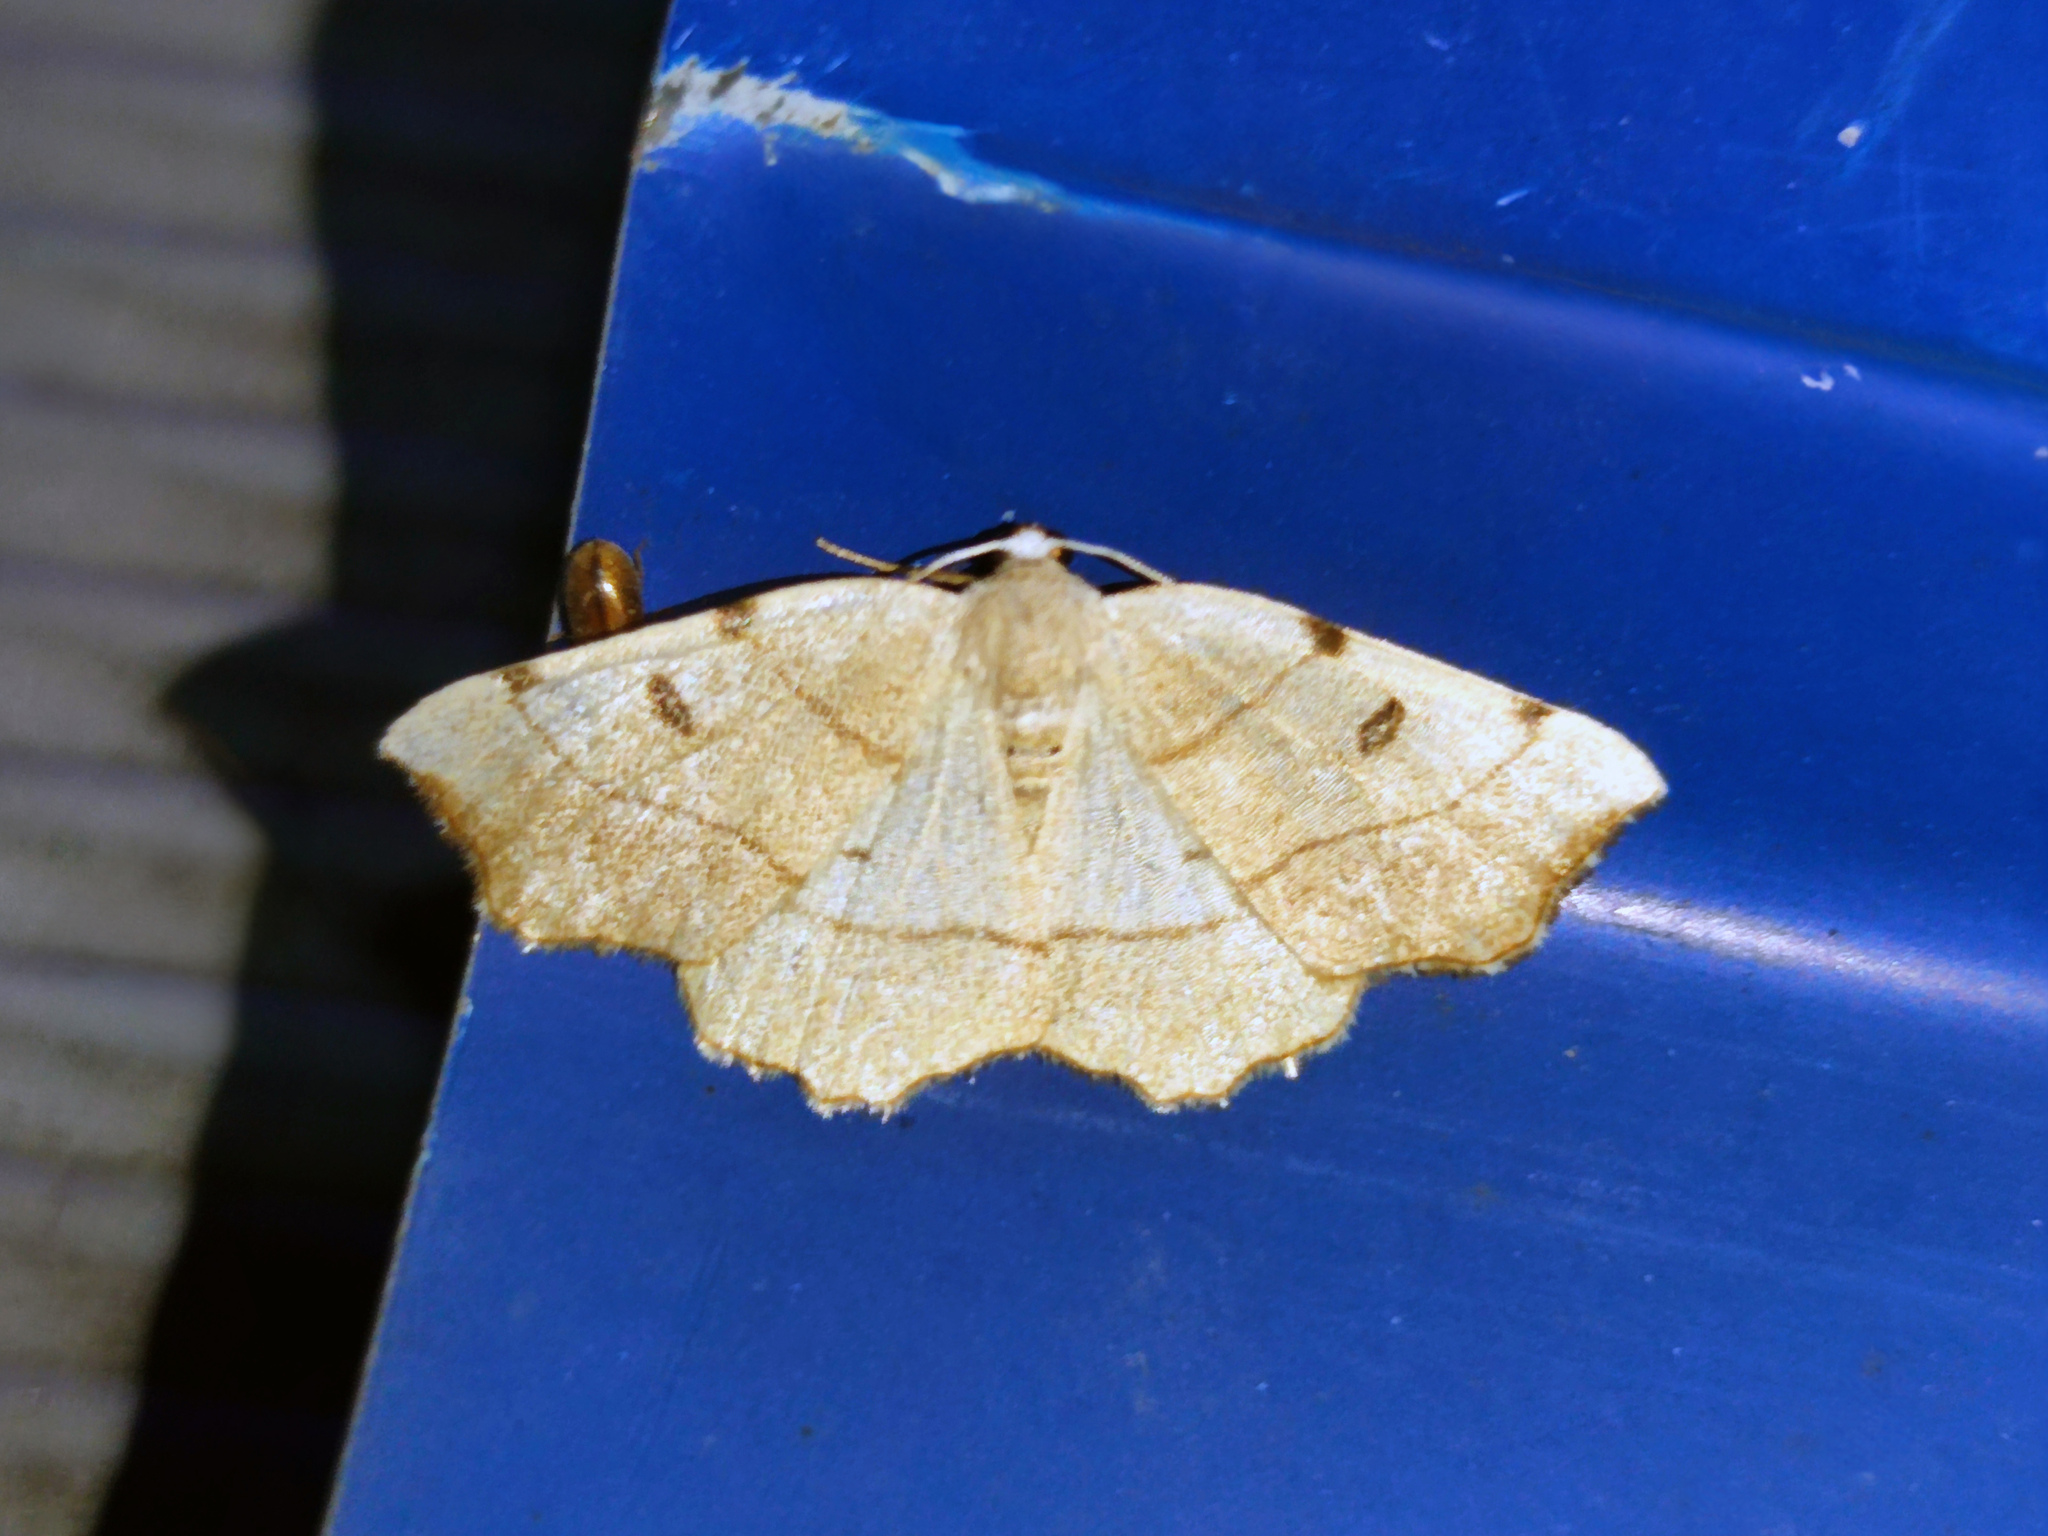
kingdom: Animalia
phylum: Arthropoda
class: Insecta
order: Lepidoptera
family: Geometridae
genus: Eilicrinia
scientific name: Eilicrinia trinotata
